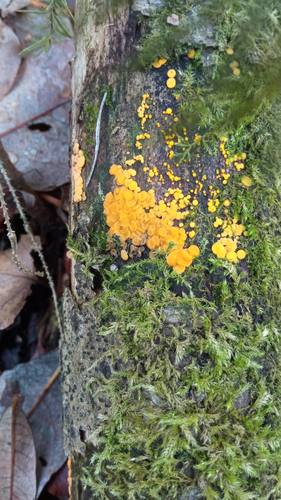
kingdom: Fungi
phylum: Ascomycota
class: Leotiomycetes
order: Helotiales
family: Pezizellaceae
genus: Calycina
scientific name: Calycina citrina
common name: Yellow fairy cups
